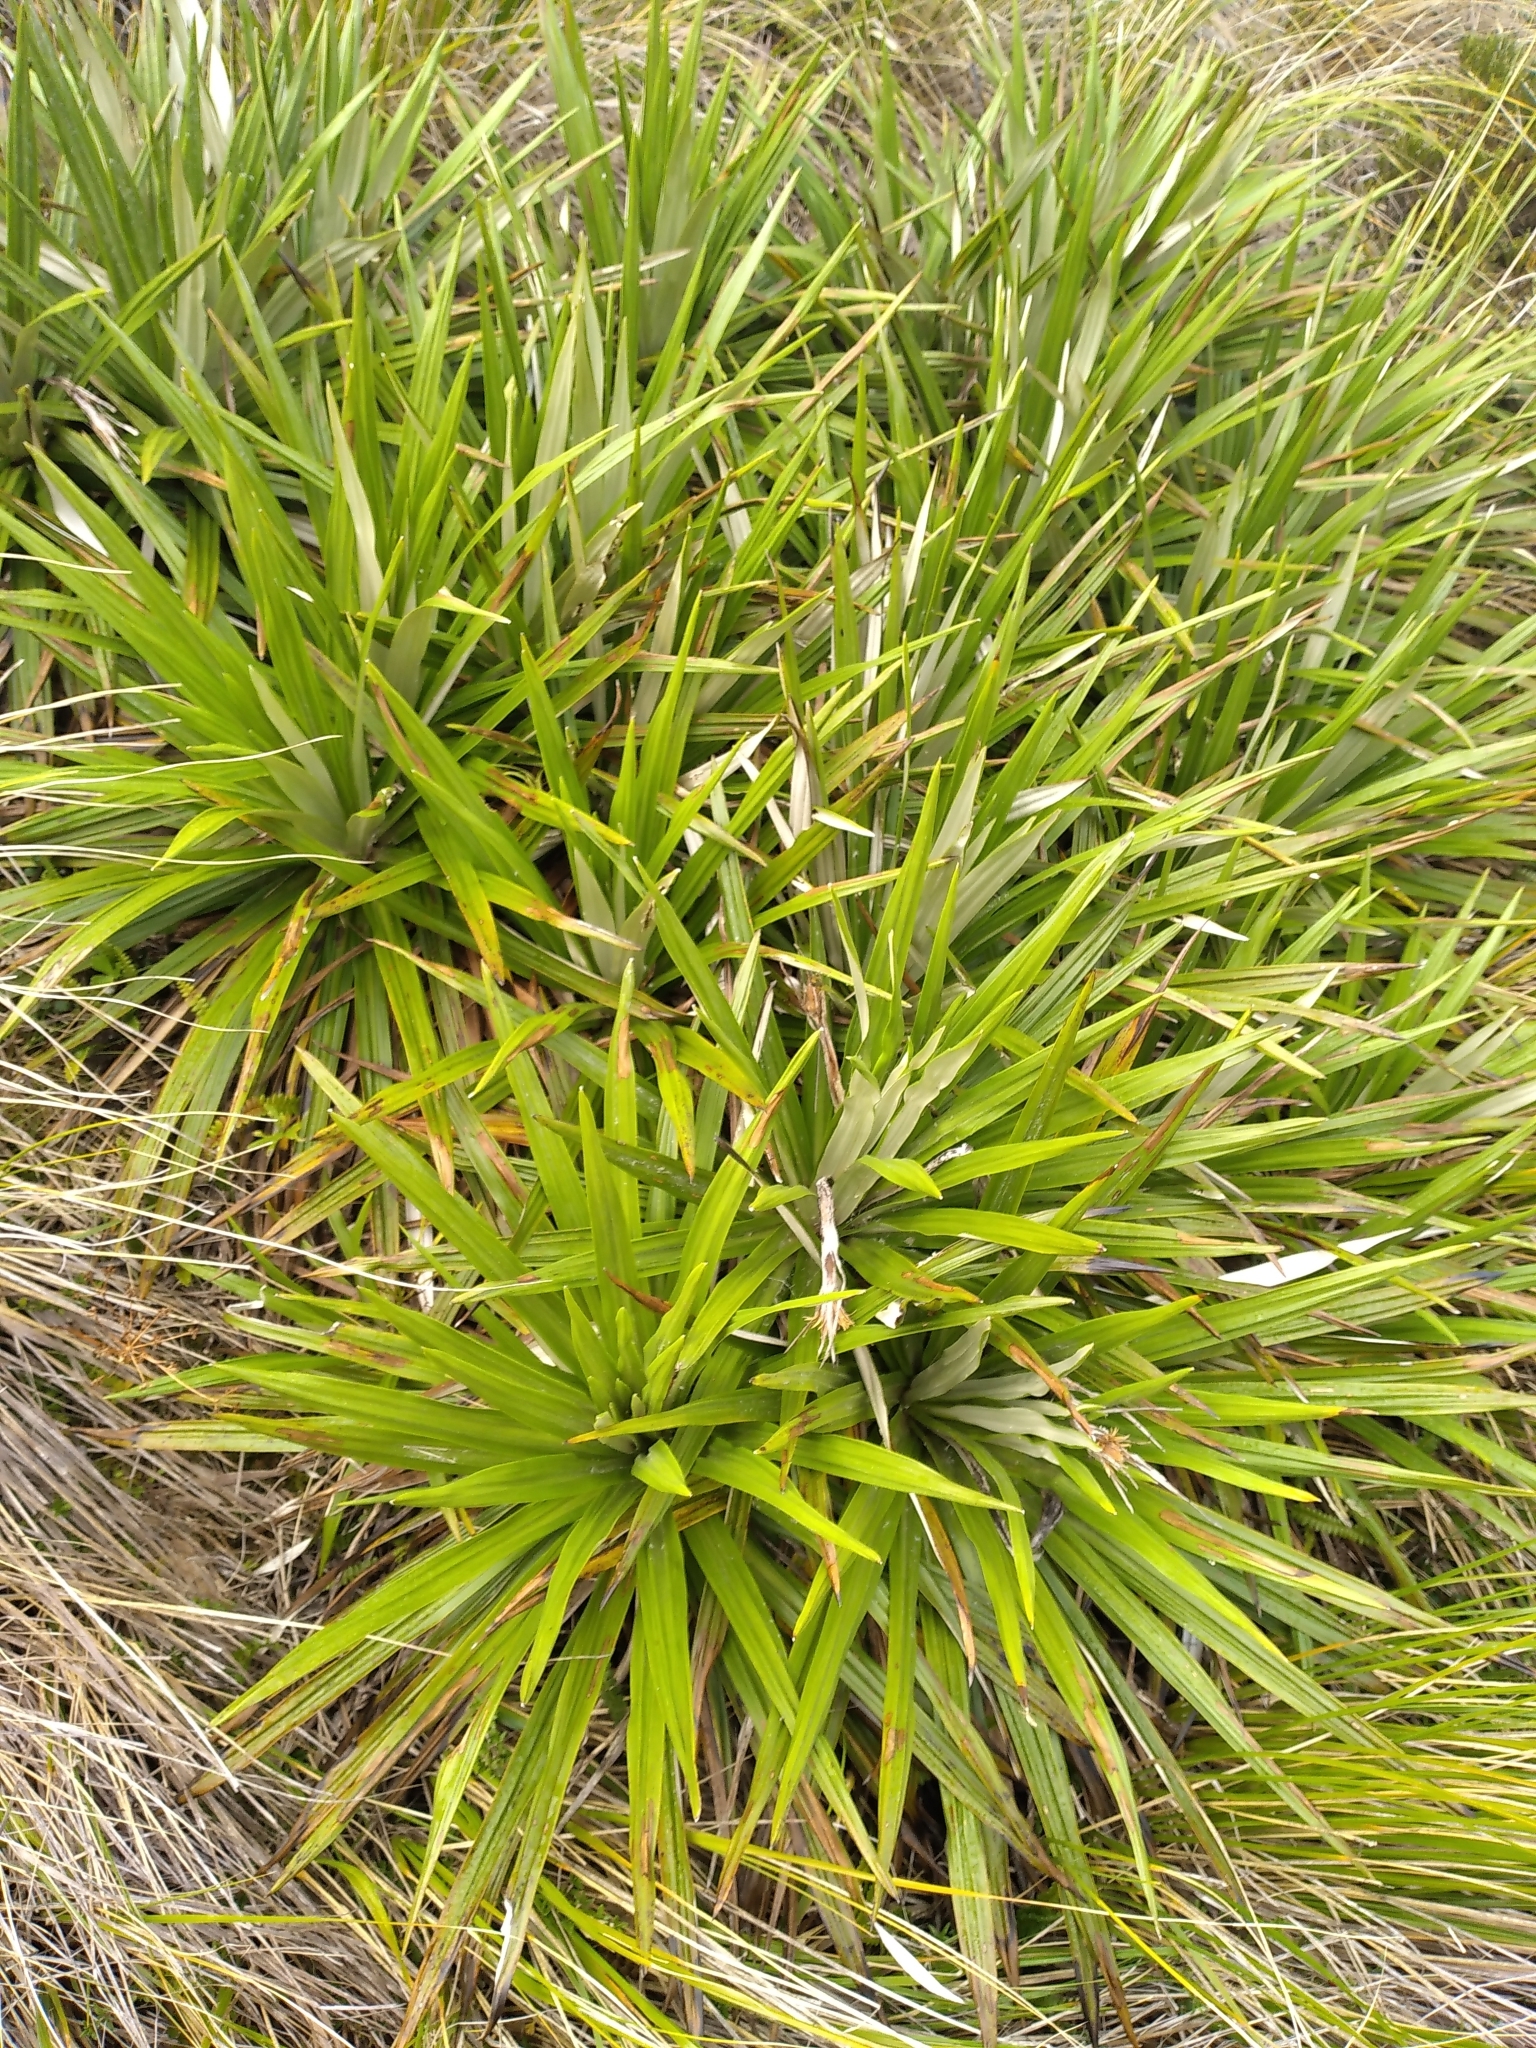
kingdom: Plantae
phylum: Tracheophyta
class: Magnoliopsida
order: Asterales
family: Asteraceae
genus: Celmisia
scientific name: Celmisia petriei
